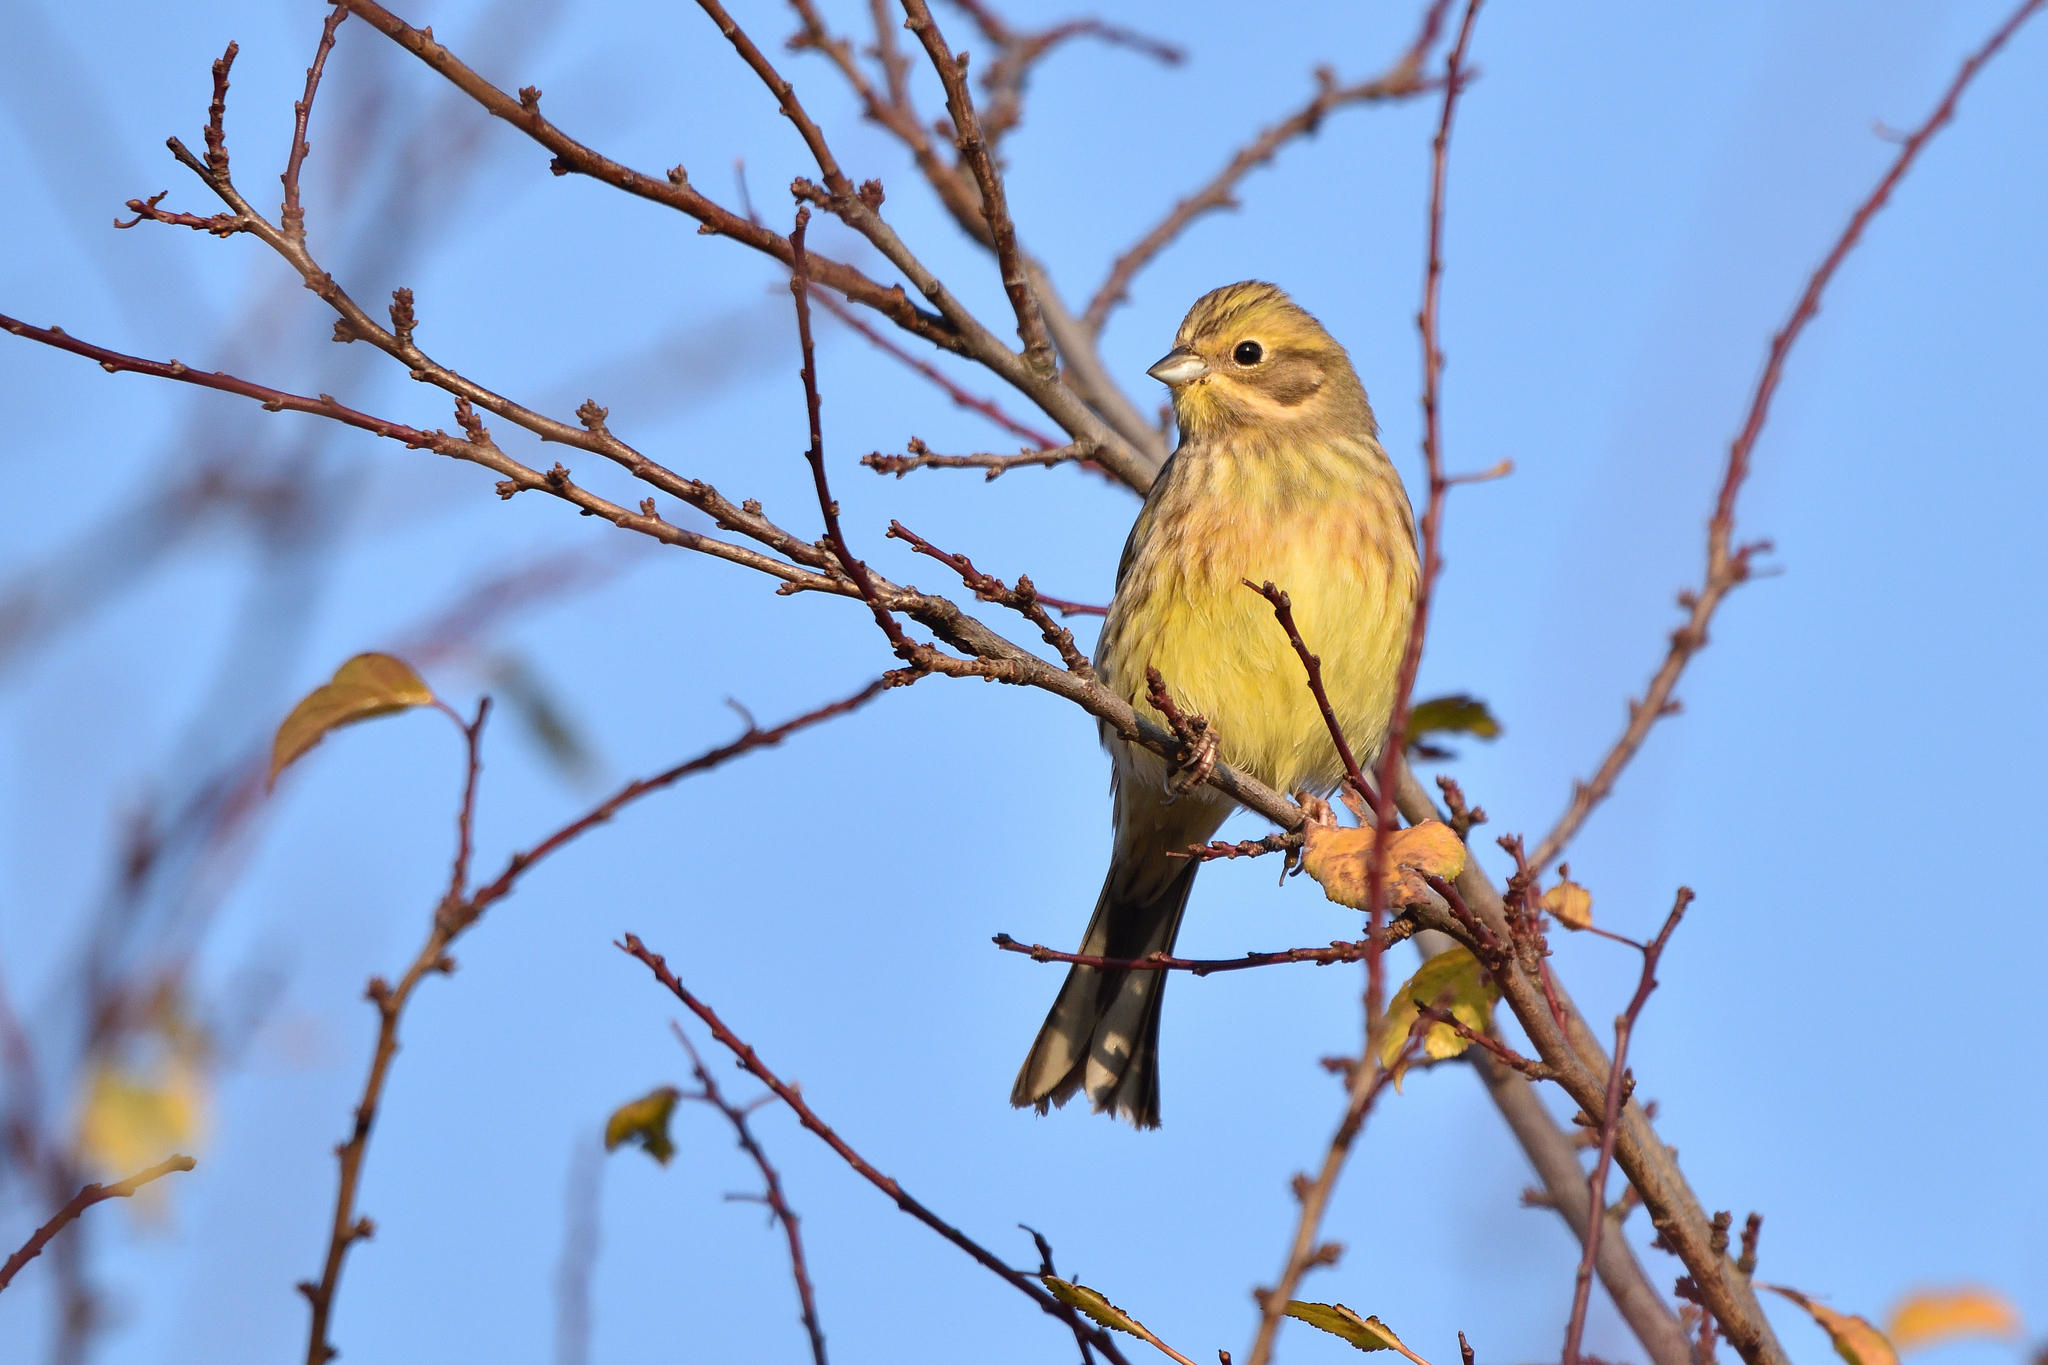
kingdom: Animalia
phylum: Chordata
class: Aves
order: Passeriformes
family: Emberizidae
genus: Emberiza
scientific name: Emberiza citrinella
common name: Yellowhammer
